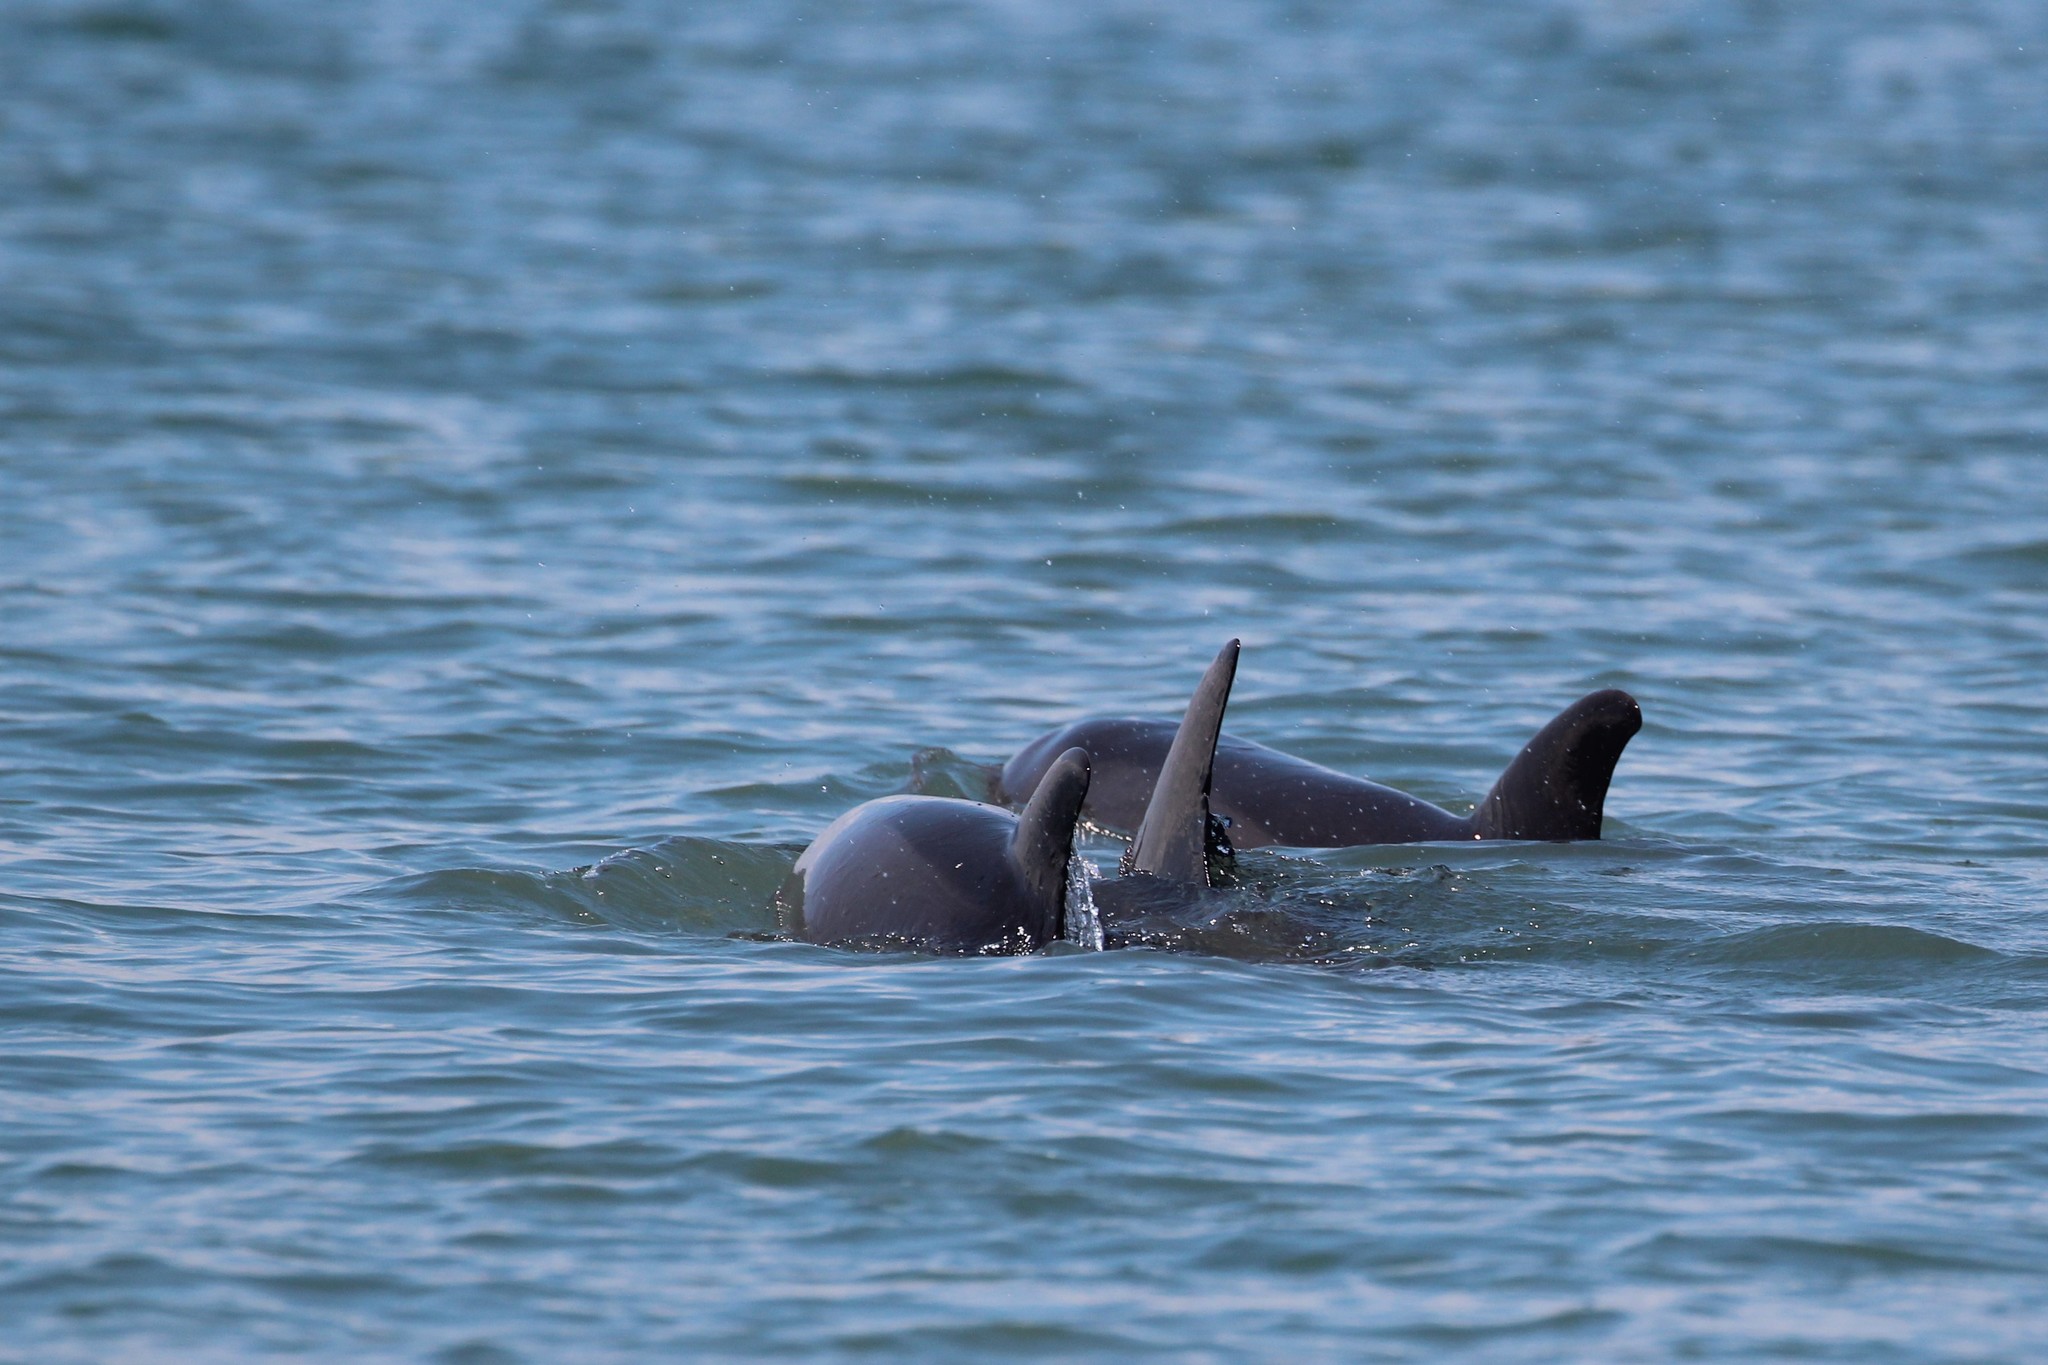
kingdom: Animalia
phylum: Chordata
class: Mammalia
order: Cetacea
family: Delphinidae
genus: Tursiops
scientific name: Tursiops truncatus
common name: Bottlenose dolphin
